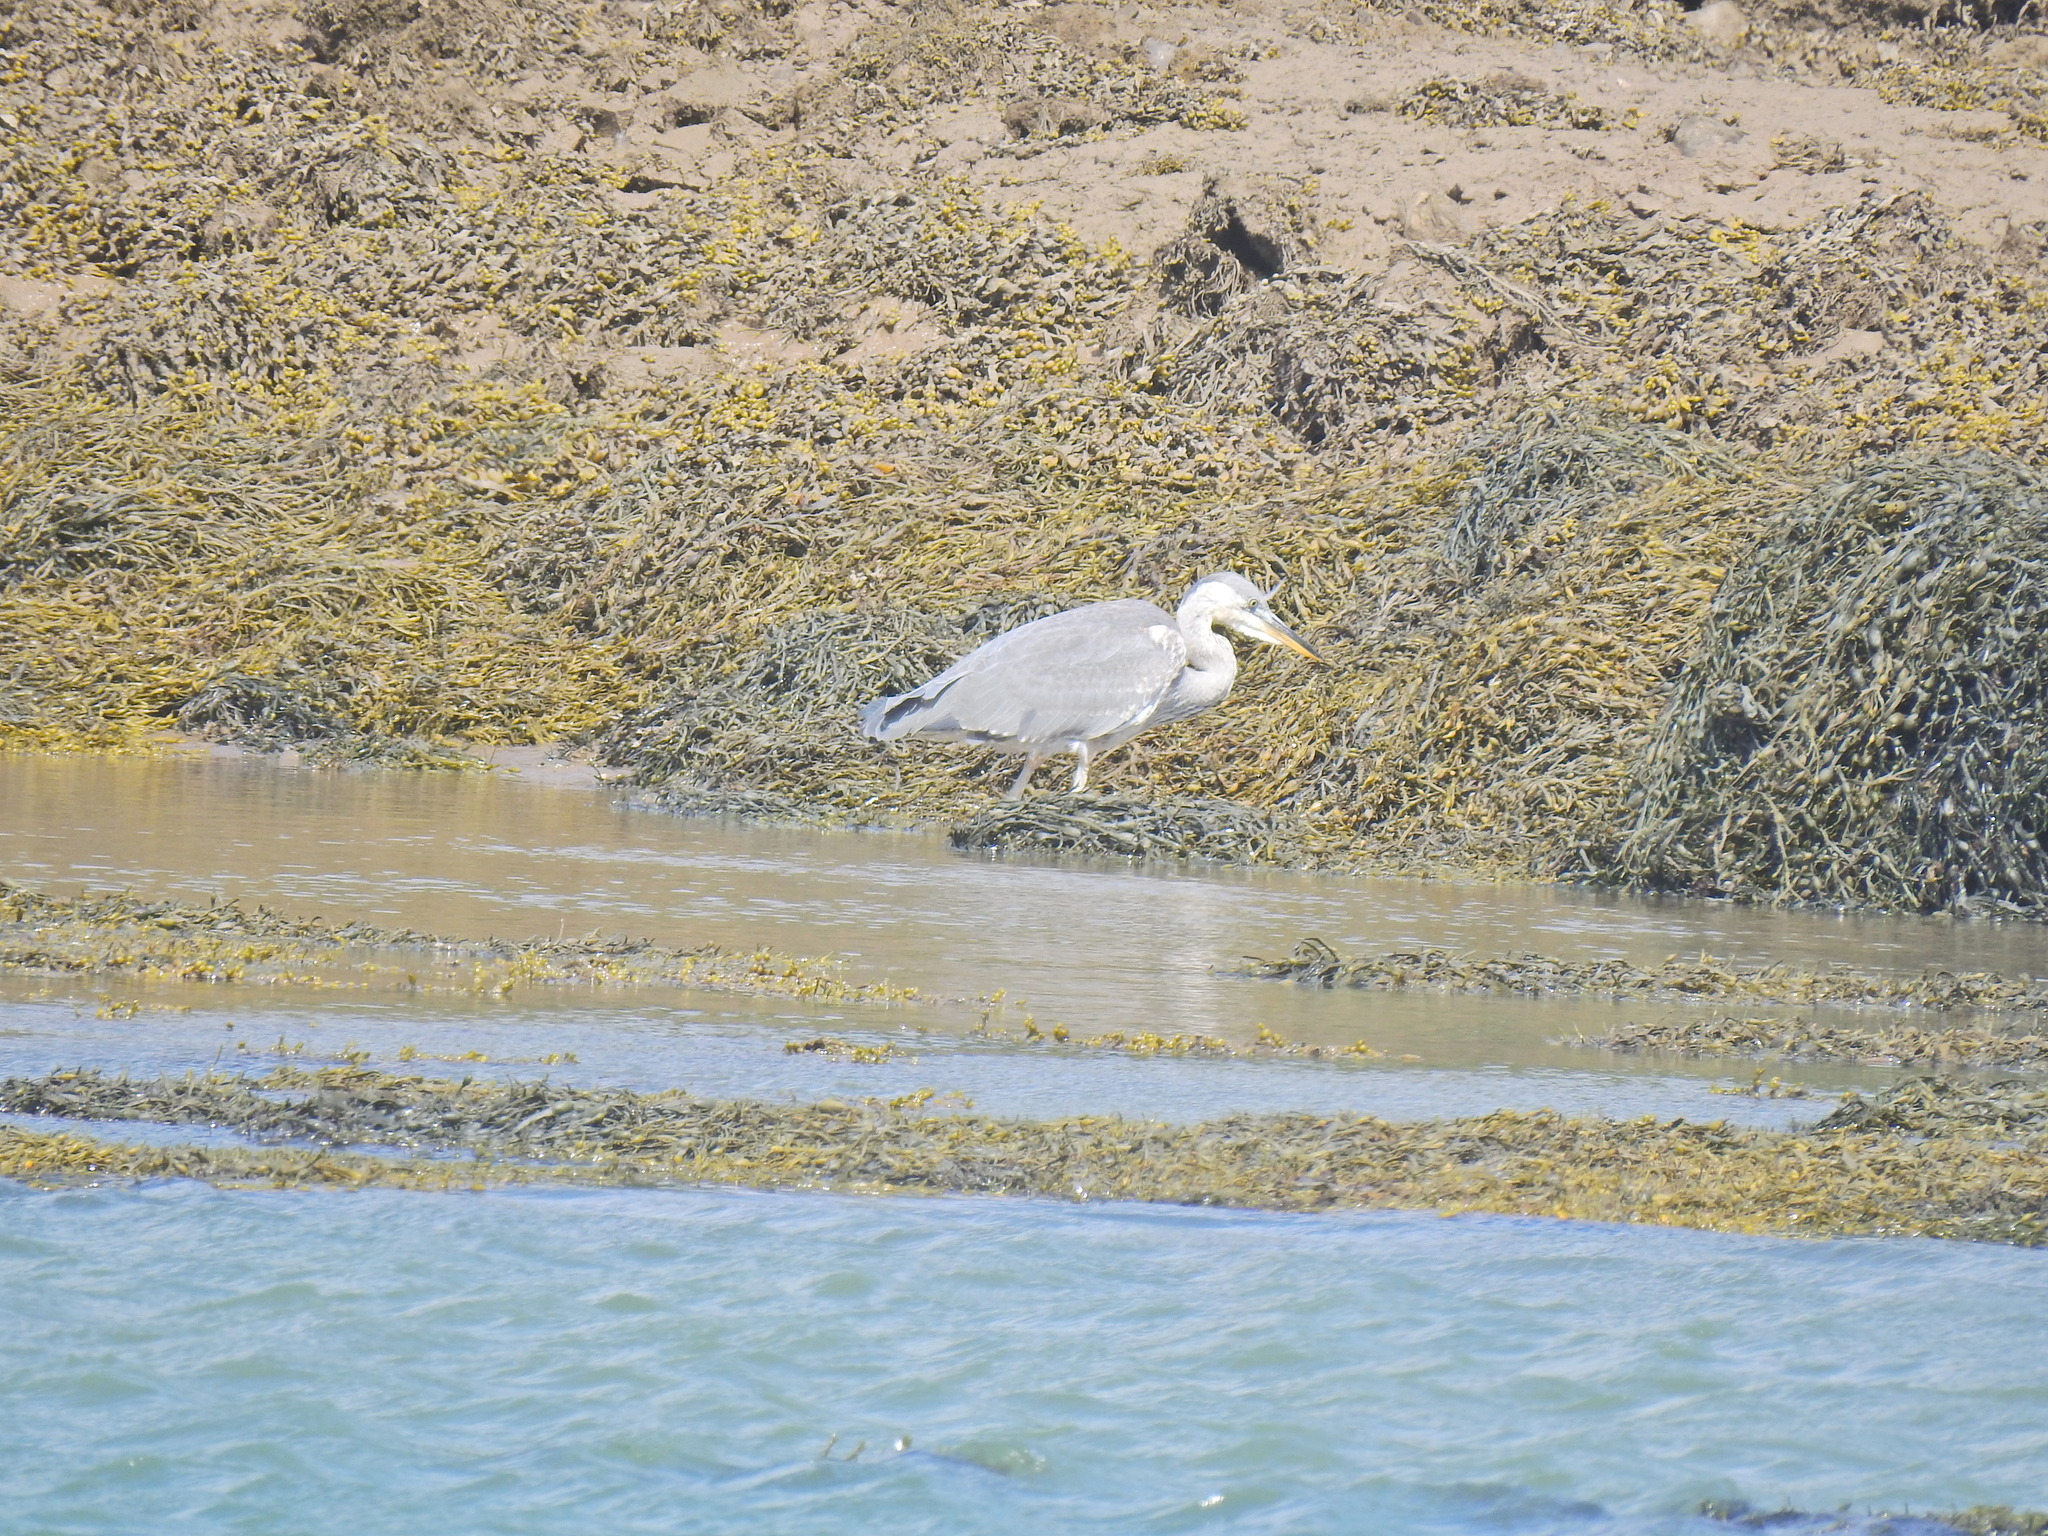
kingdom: Animalia
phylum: Chordata
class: Aves
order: Pelecaniformes
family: Ardeidae
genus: Ardea
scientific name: Ardea cinerea
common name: Grey heron
